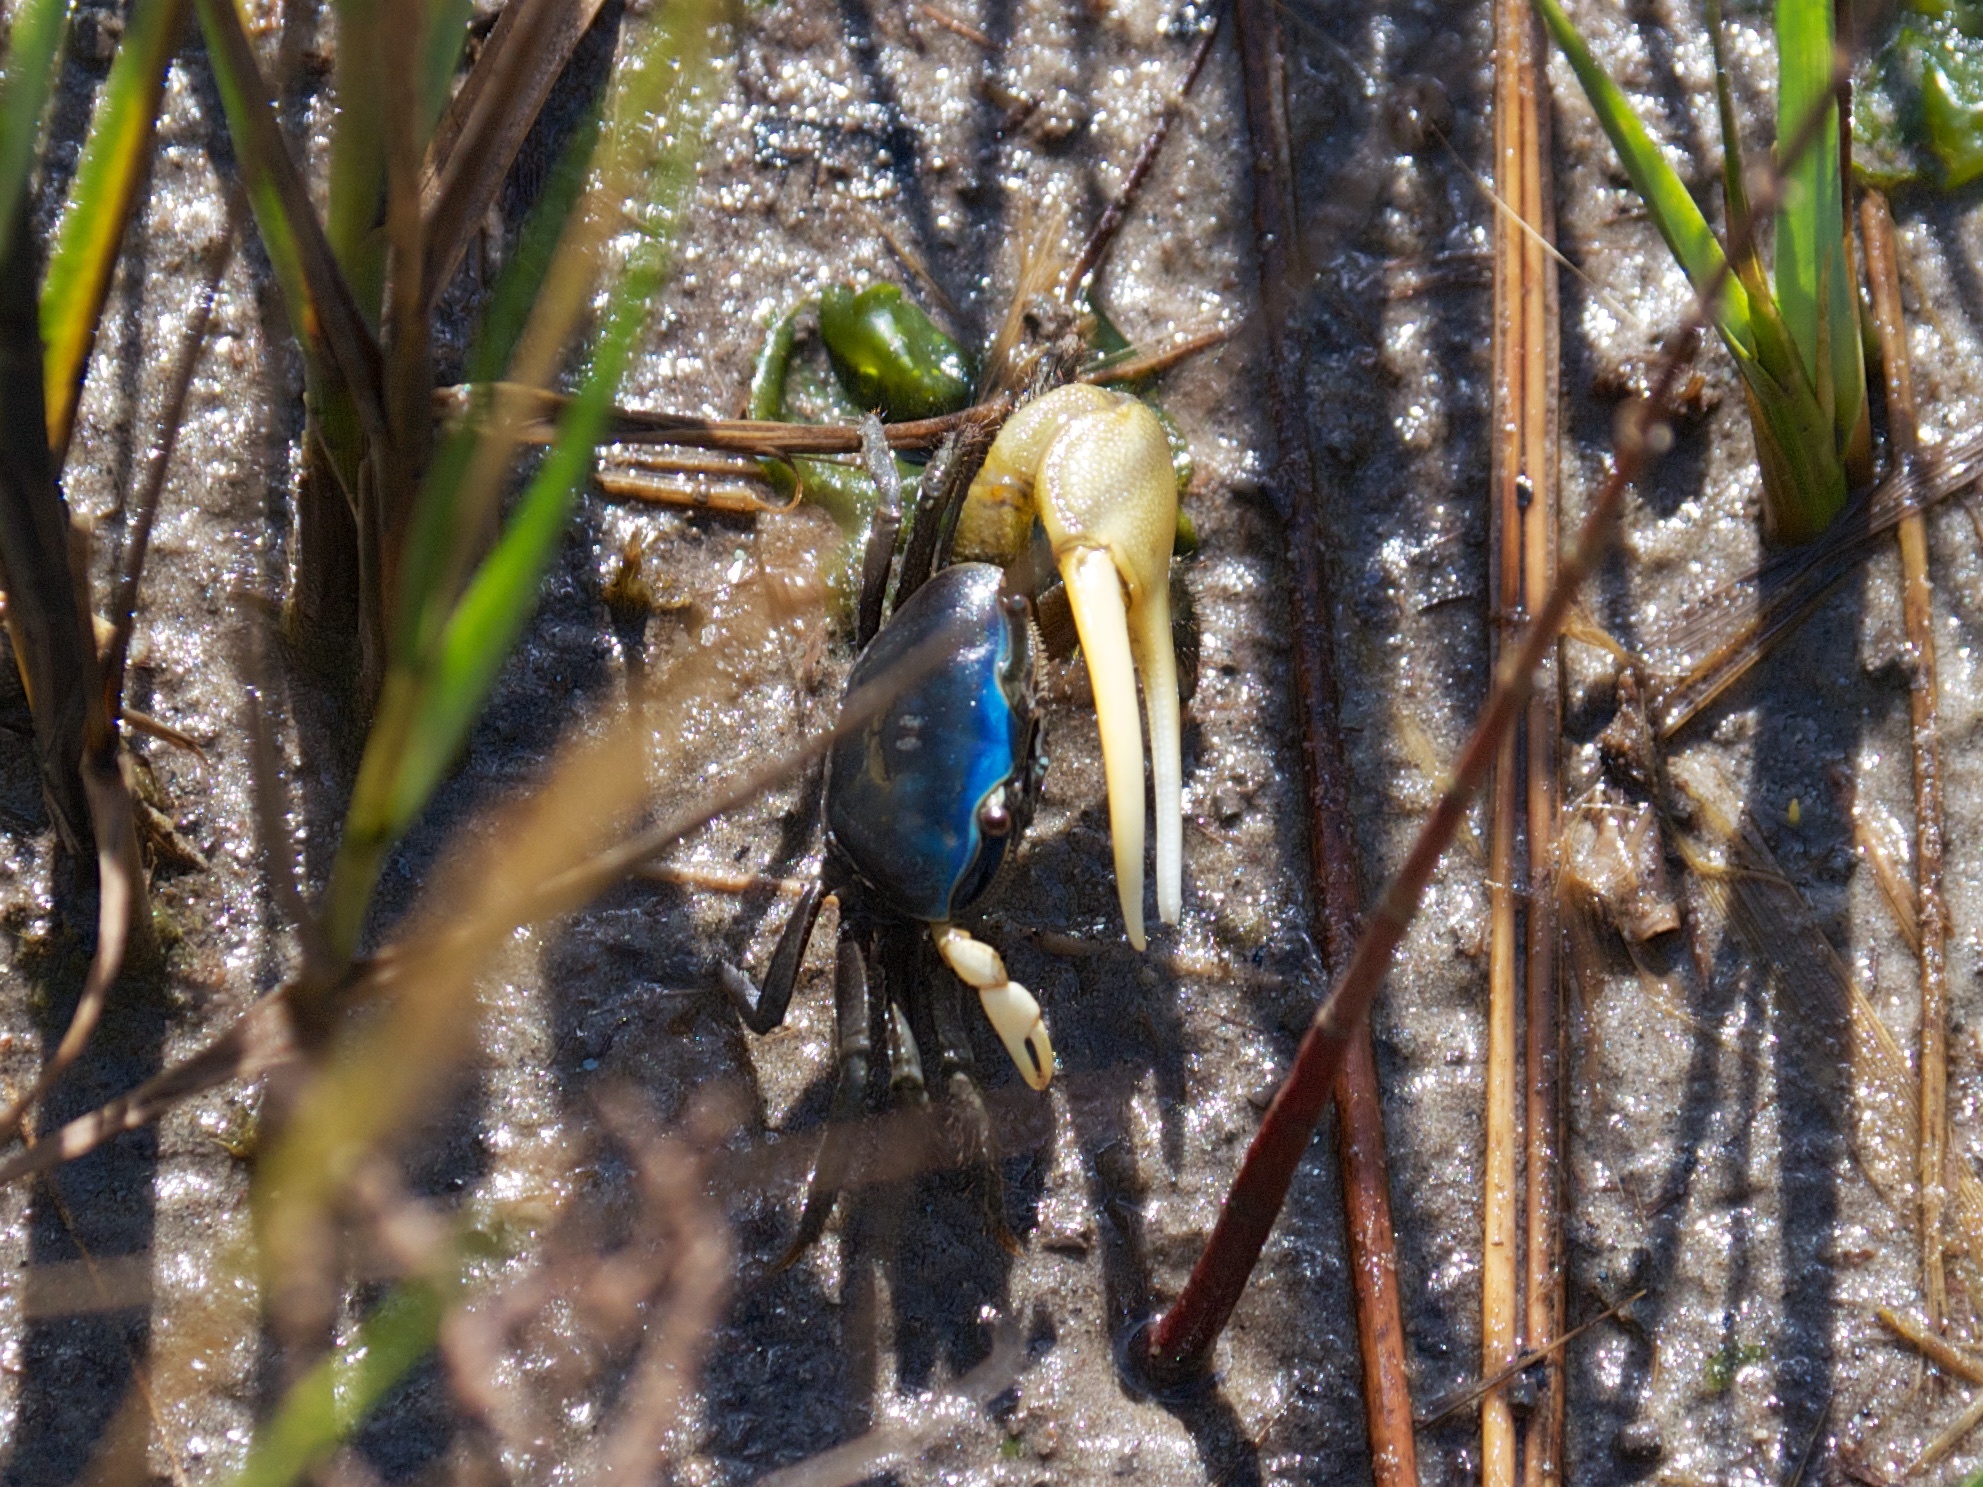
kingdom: Animalia
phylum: Arthropoda
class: Malacostraca
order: Decapoda
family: Ocypodidae
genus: Minuca
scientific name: Minuca pugnax
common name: Mud fiddler crab
